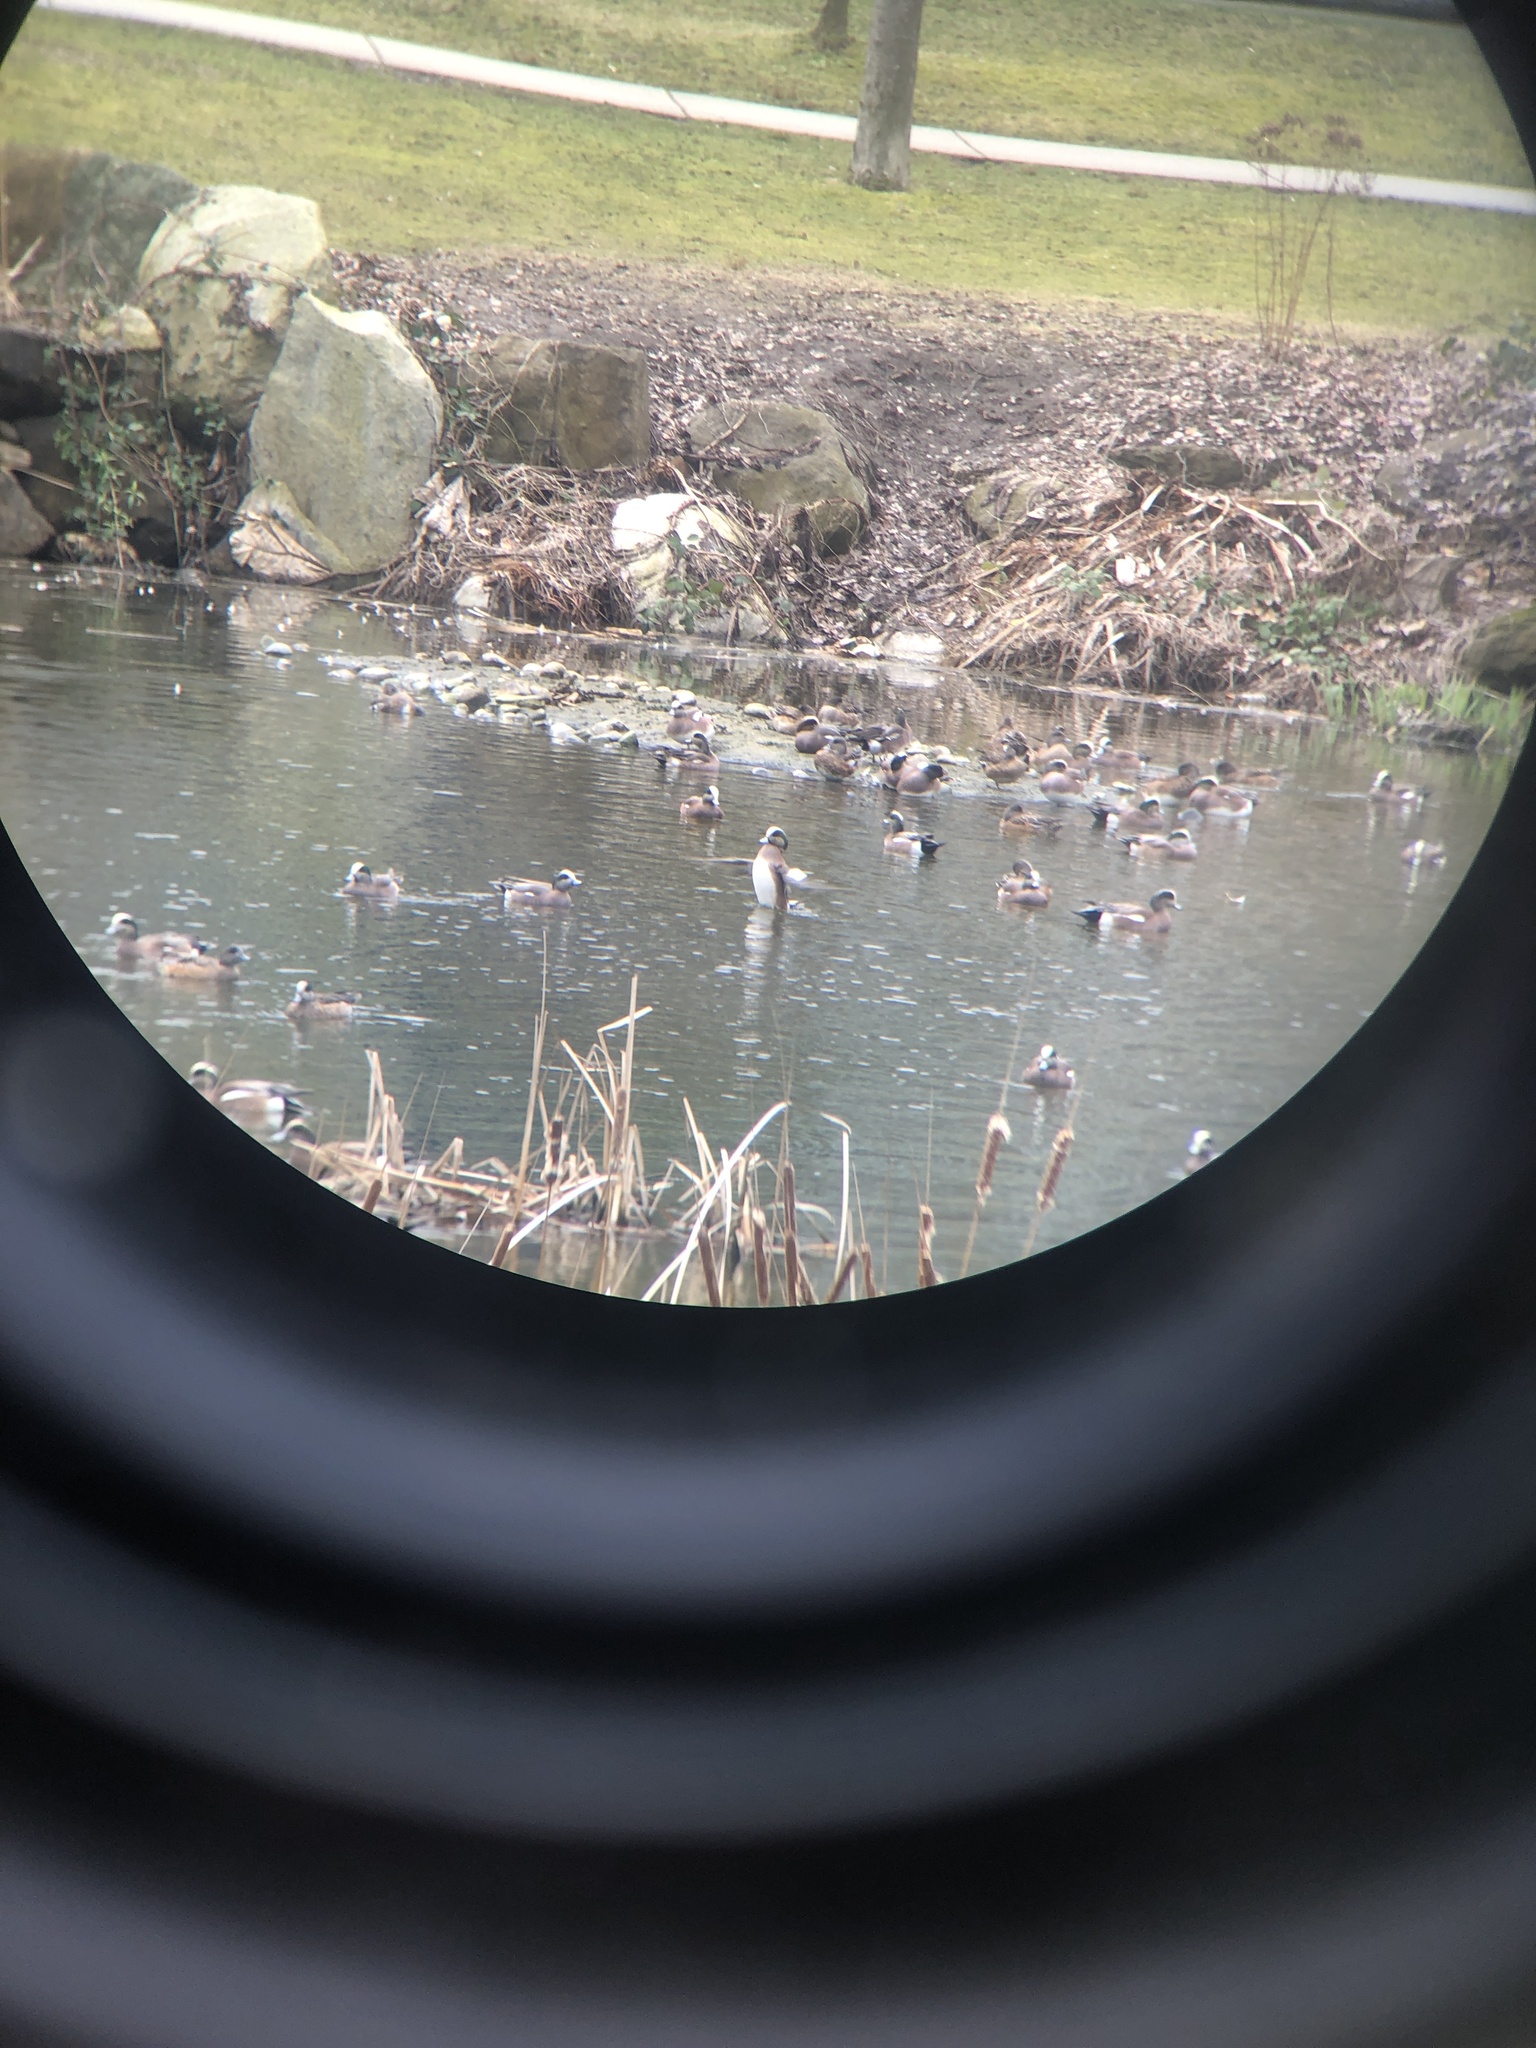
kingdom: Animalia
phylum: Chordata
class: Aves
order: Anseriformes
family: Anatidae
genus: Mareca
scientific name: Mareca americana
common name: American wigeon
